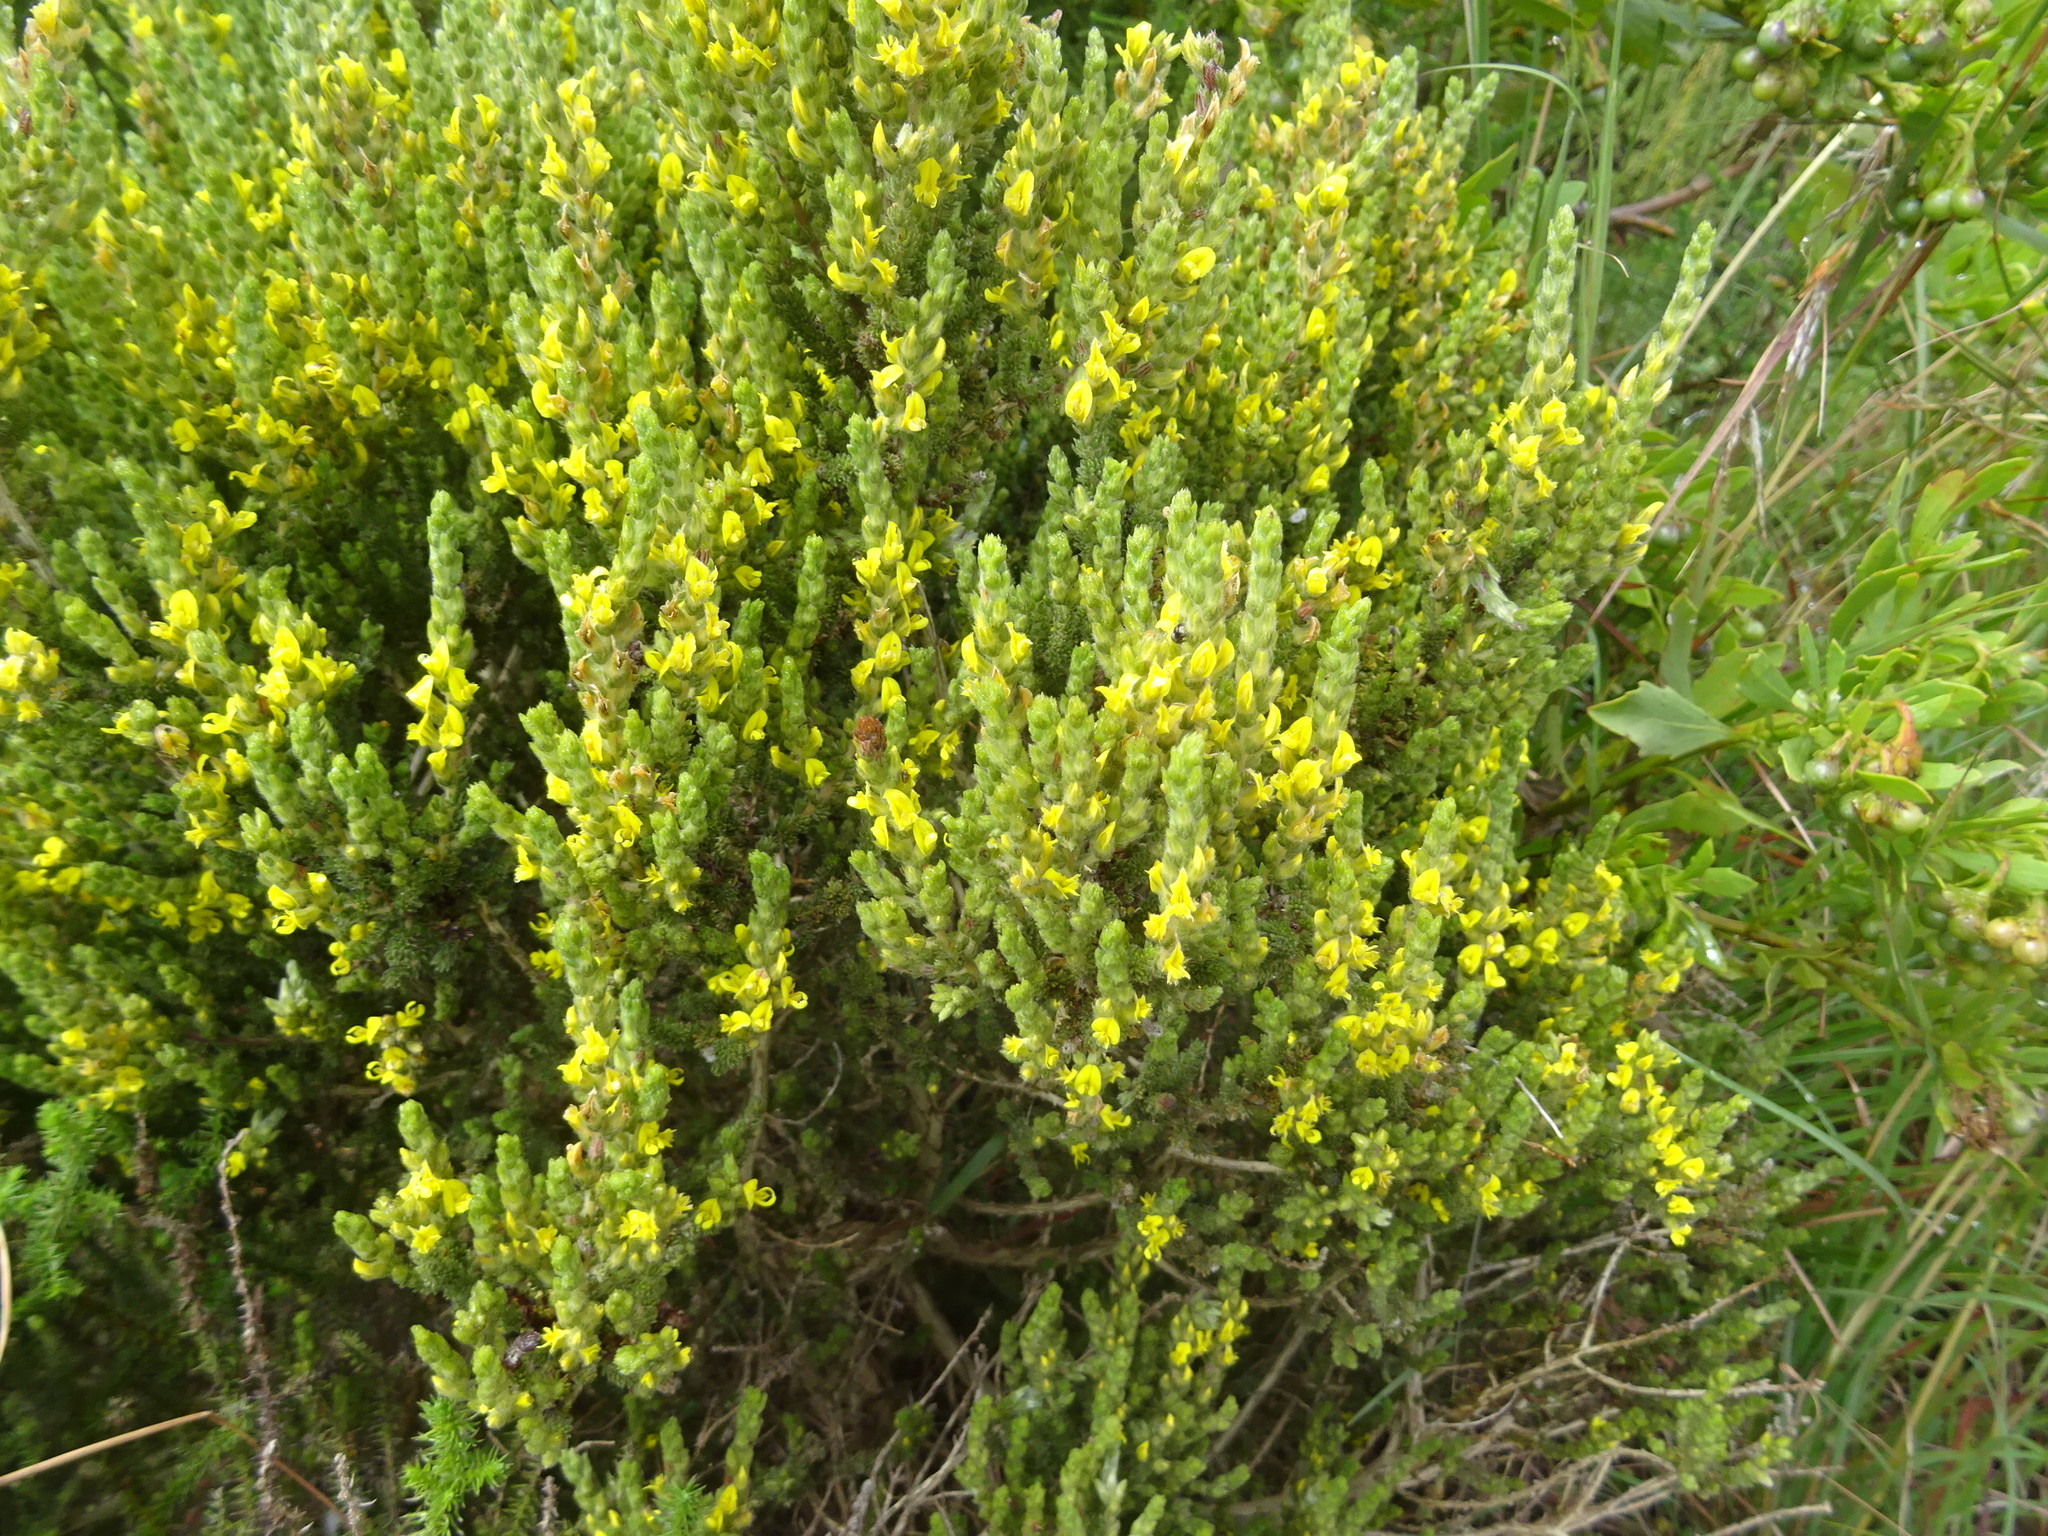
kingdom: Plantae
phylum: Tracheophyta
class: Magnoliopsida
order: Fabales
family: Fabaceae
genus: Aspalathus
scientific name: Aspalathus ericifolia
